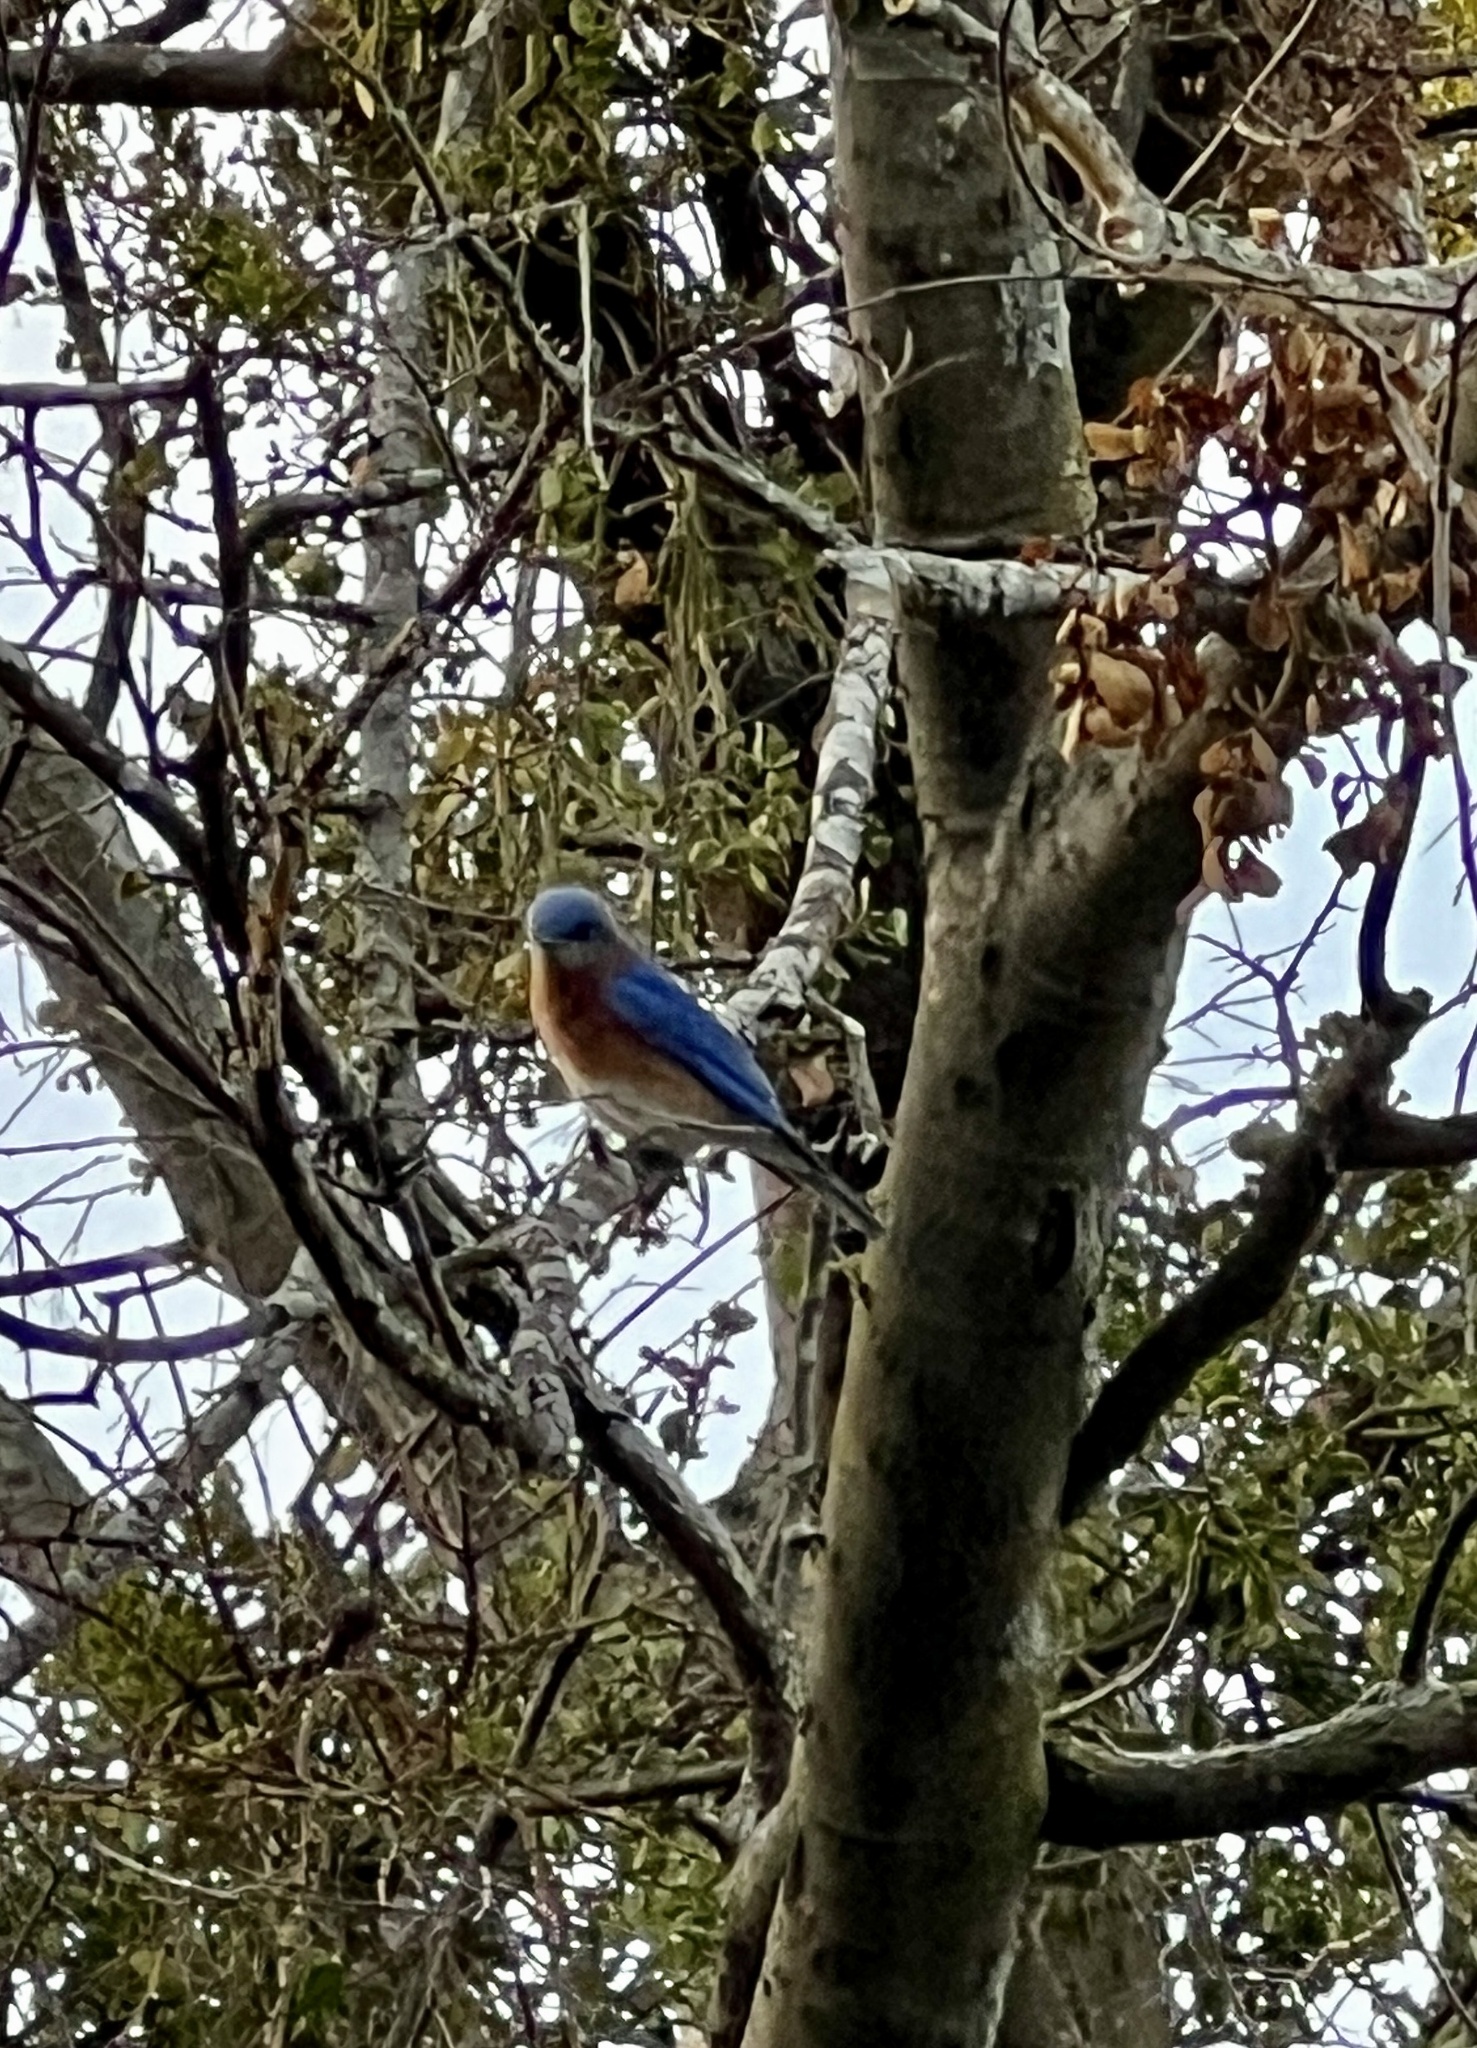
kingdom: Animalia
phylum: Chordata
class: Aves
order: Passeriformes
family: Turdidae
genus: Sialia
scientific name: Sialia sialis
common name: Eastern bluebird
